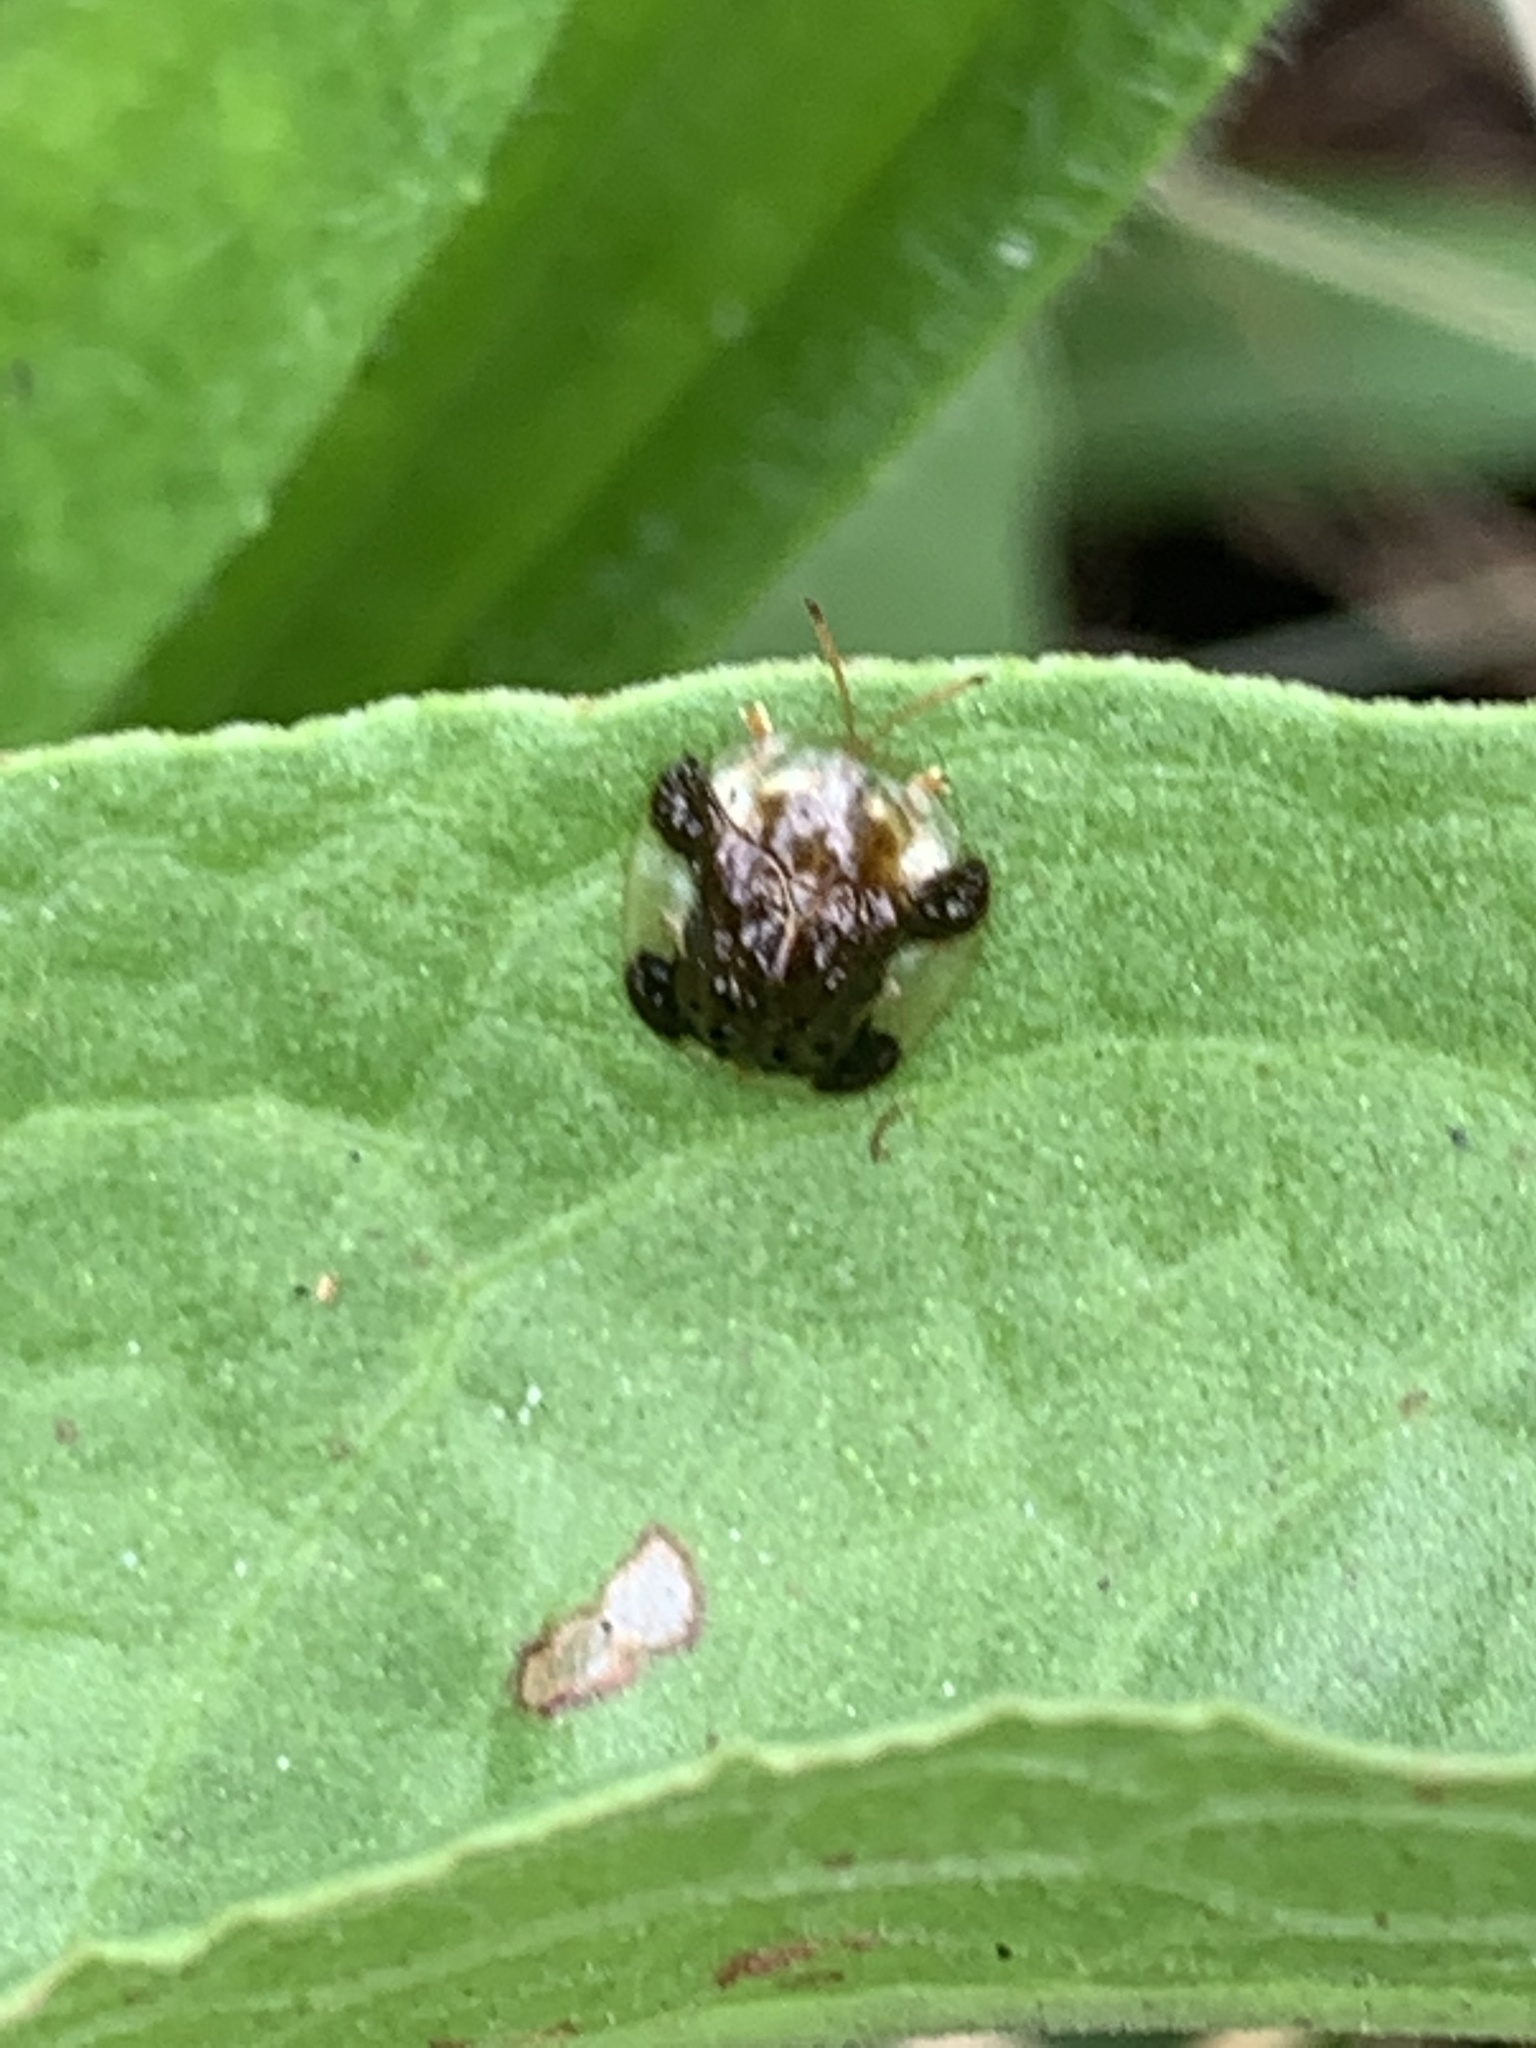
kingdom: Animalia
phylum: Arthropoda
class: Insecta
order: Coleoptera
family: Chrysomelidae
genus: Helocassis
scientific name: Helocassis clavata
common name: Clavate tortoise beetle
